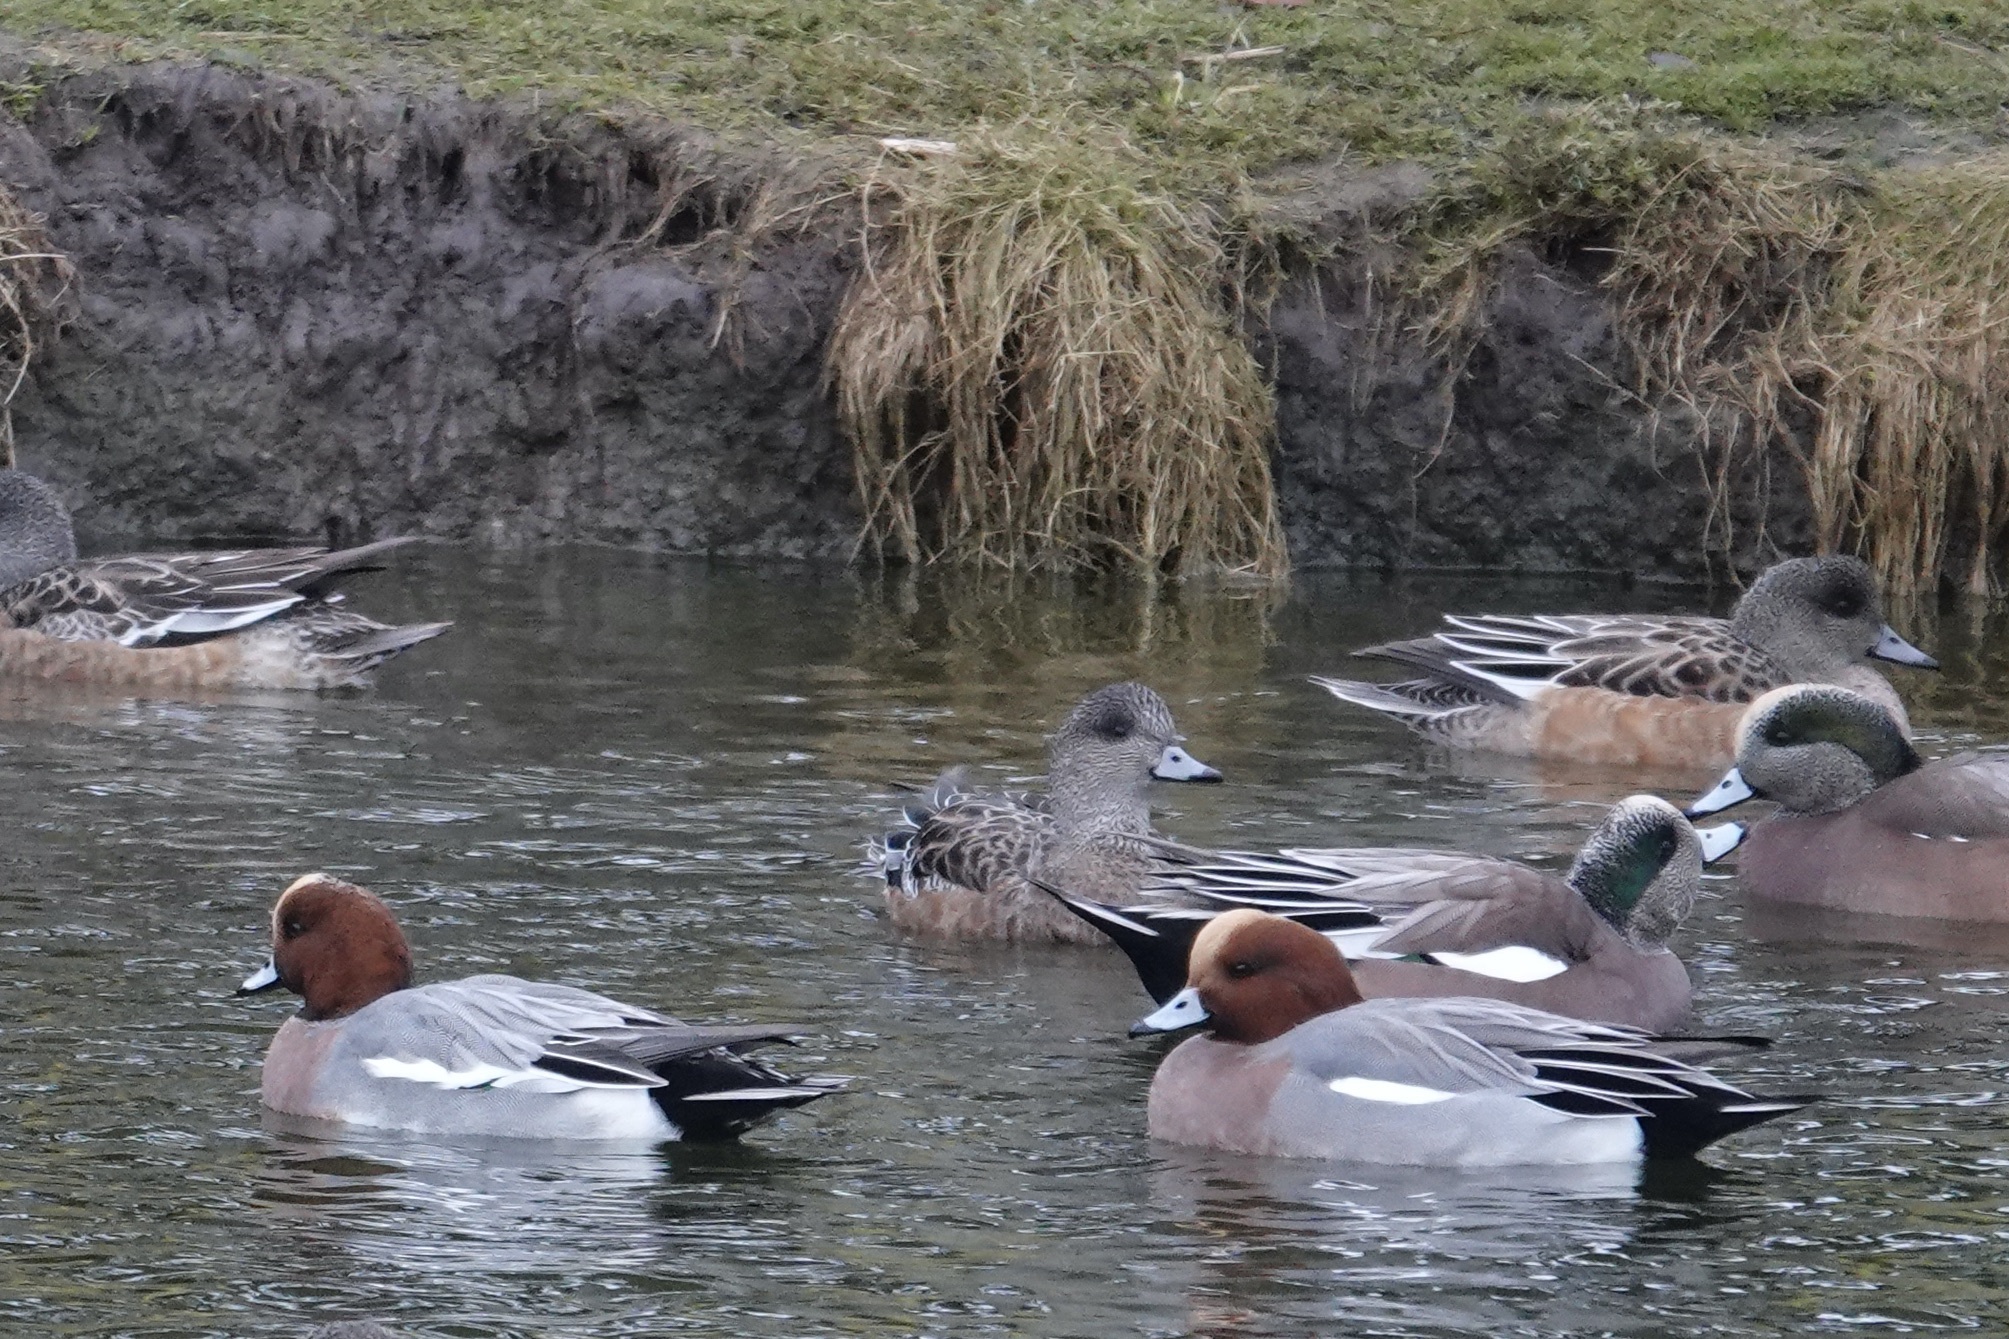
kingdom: Animalia
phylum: Chordata
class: Aves
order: Anseriformes
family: Anatidae
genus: Mareca
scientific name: Mareca penelope
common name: Eurasian wigeon
